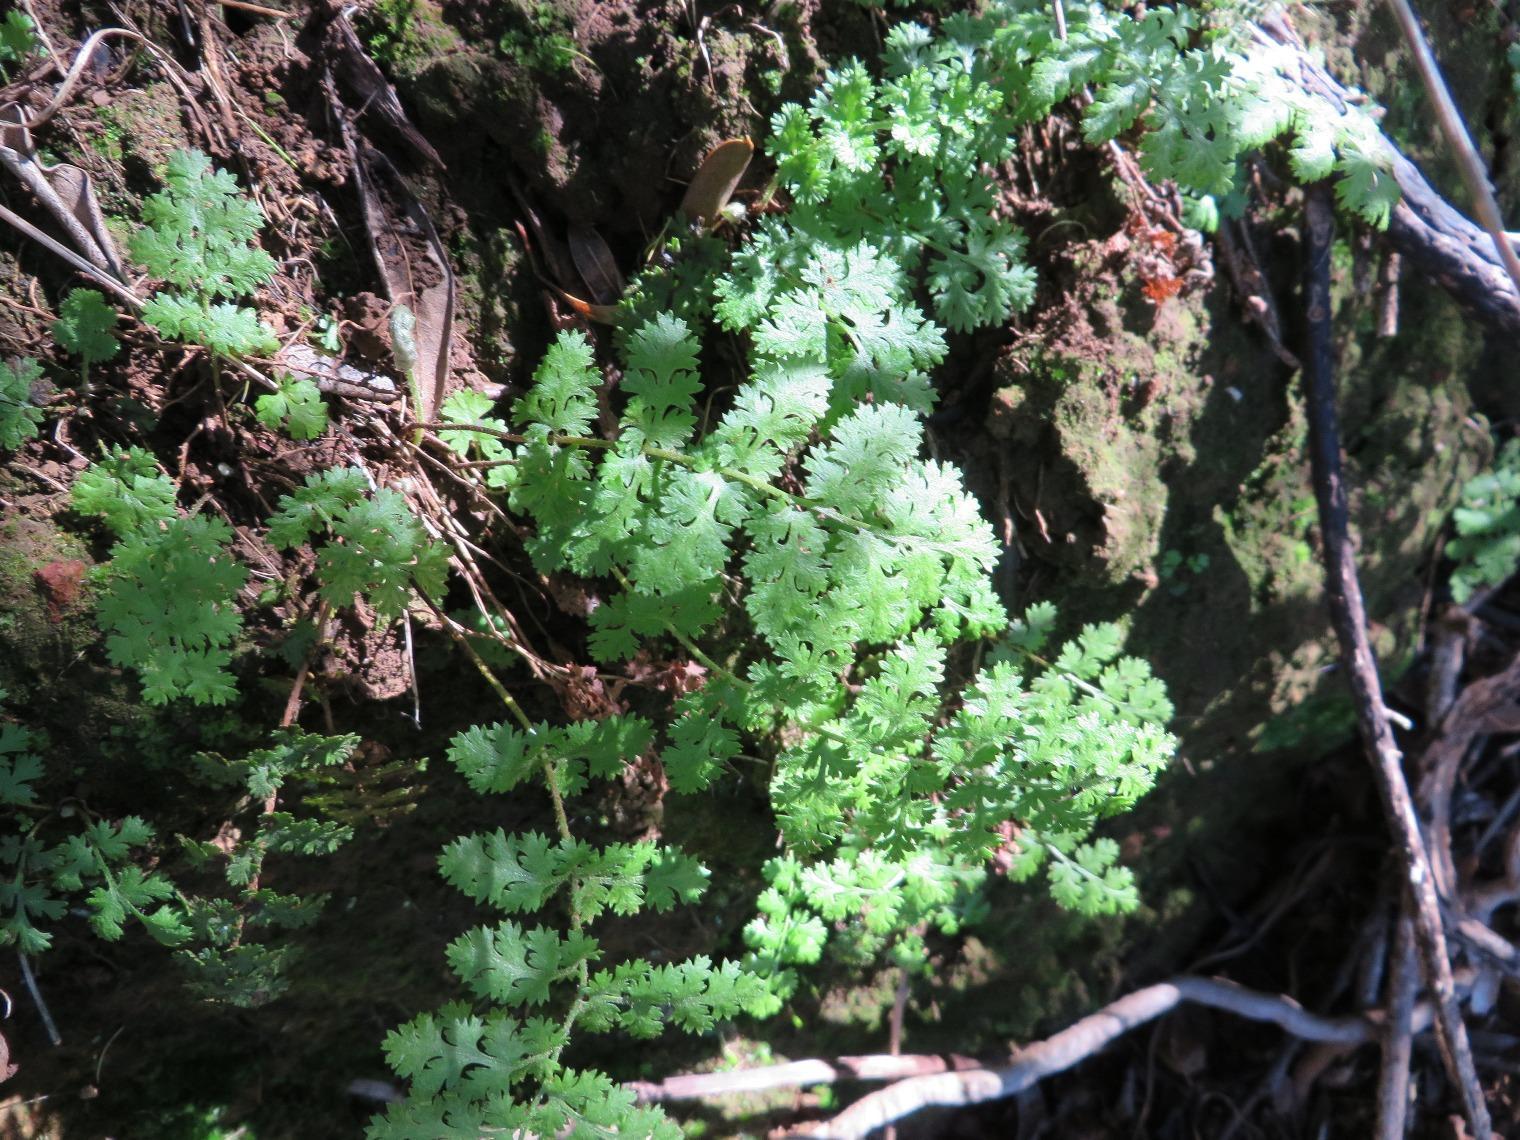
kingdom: Plantae
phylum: Tracheophyta
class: Polypodiopsida
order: Schizaeales
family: Anemiaceae
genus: Anemia
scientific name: Anemia caffrorum
